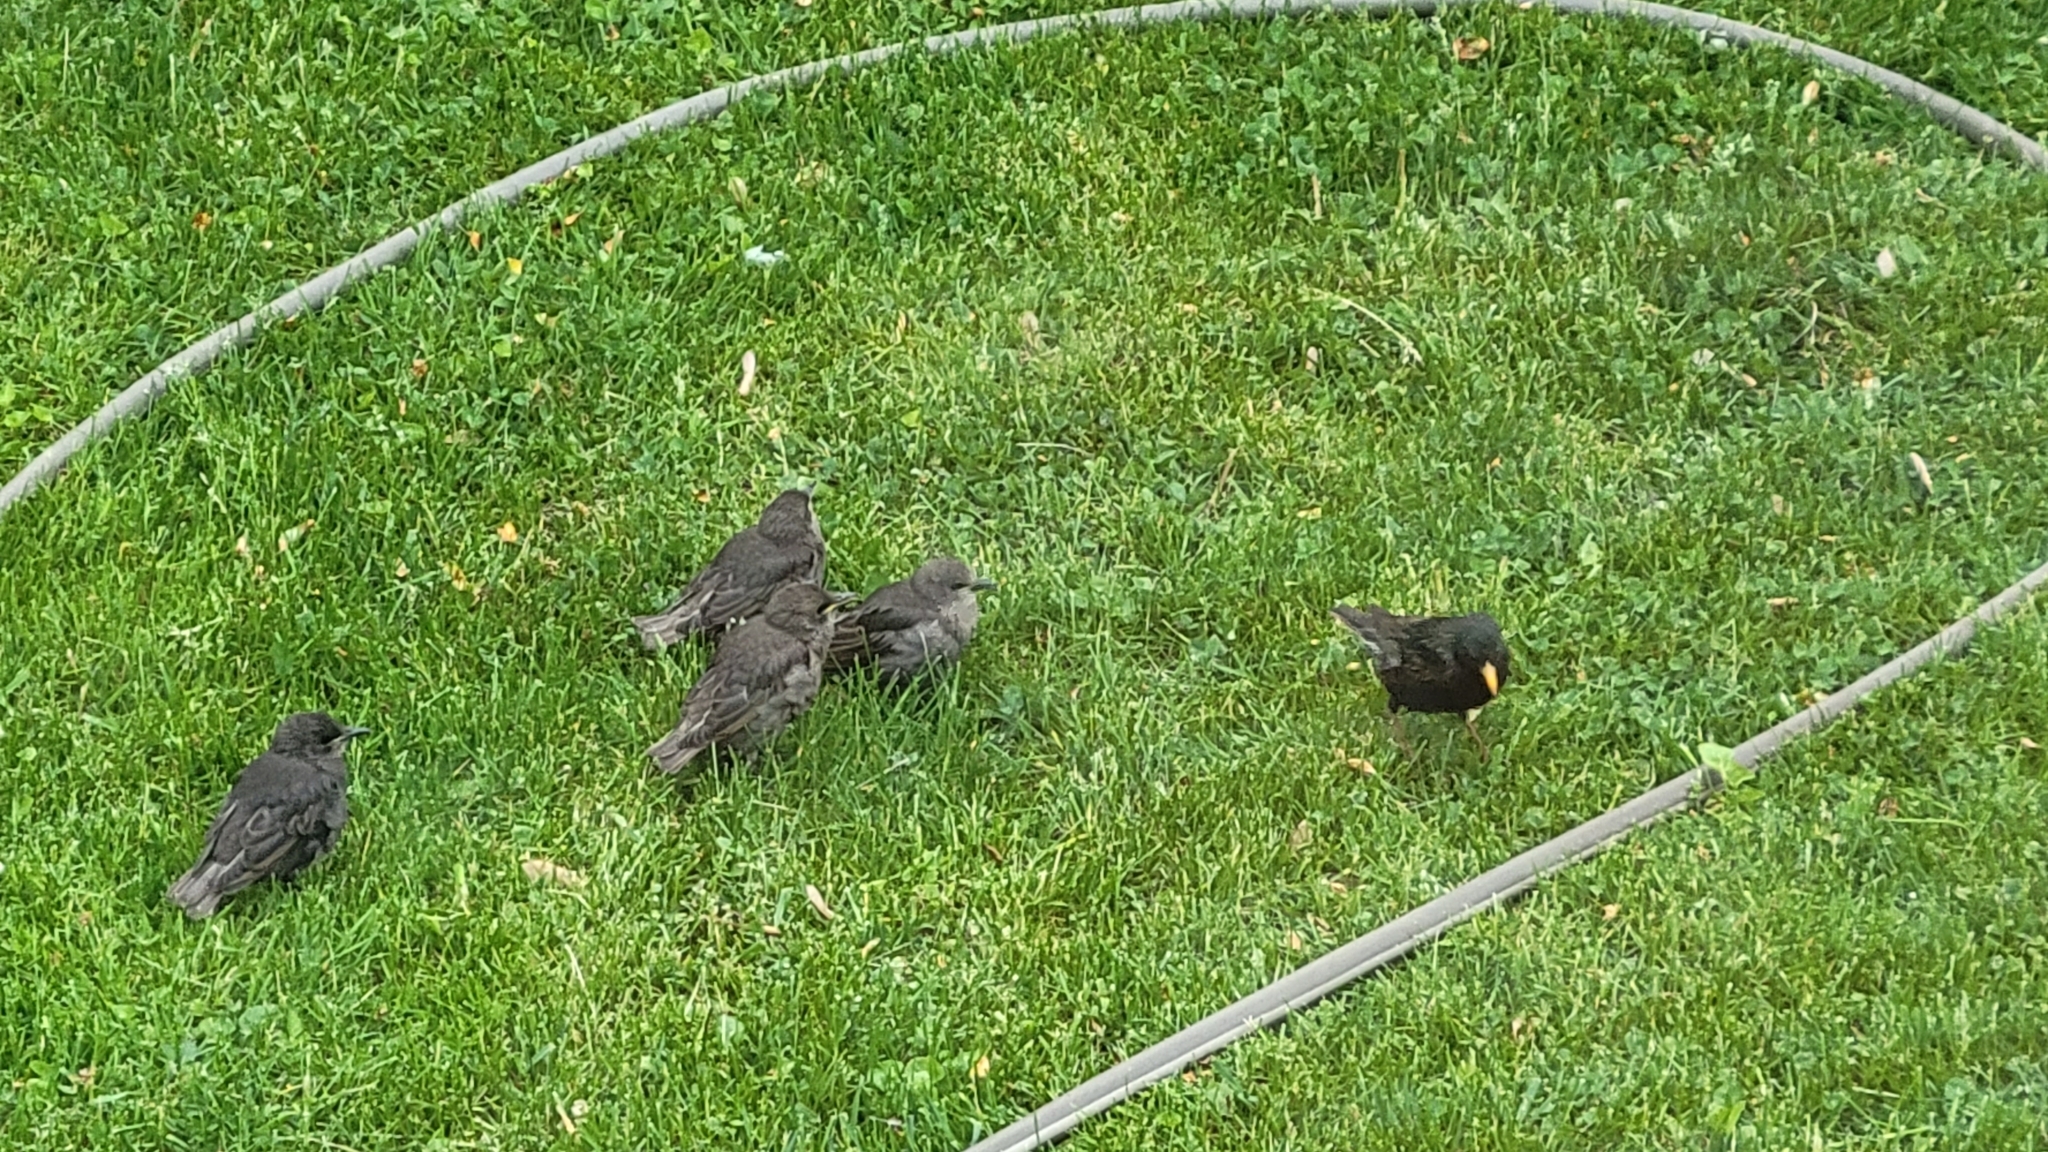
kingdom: Animalia
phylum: Chordata
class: Aves
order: Passeriformes
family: Sturnidae
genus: Sturnus
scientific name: Sturnus vulgaris
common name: Common starling
